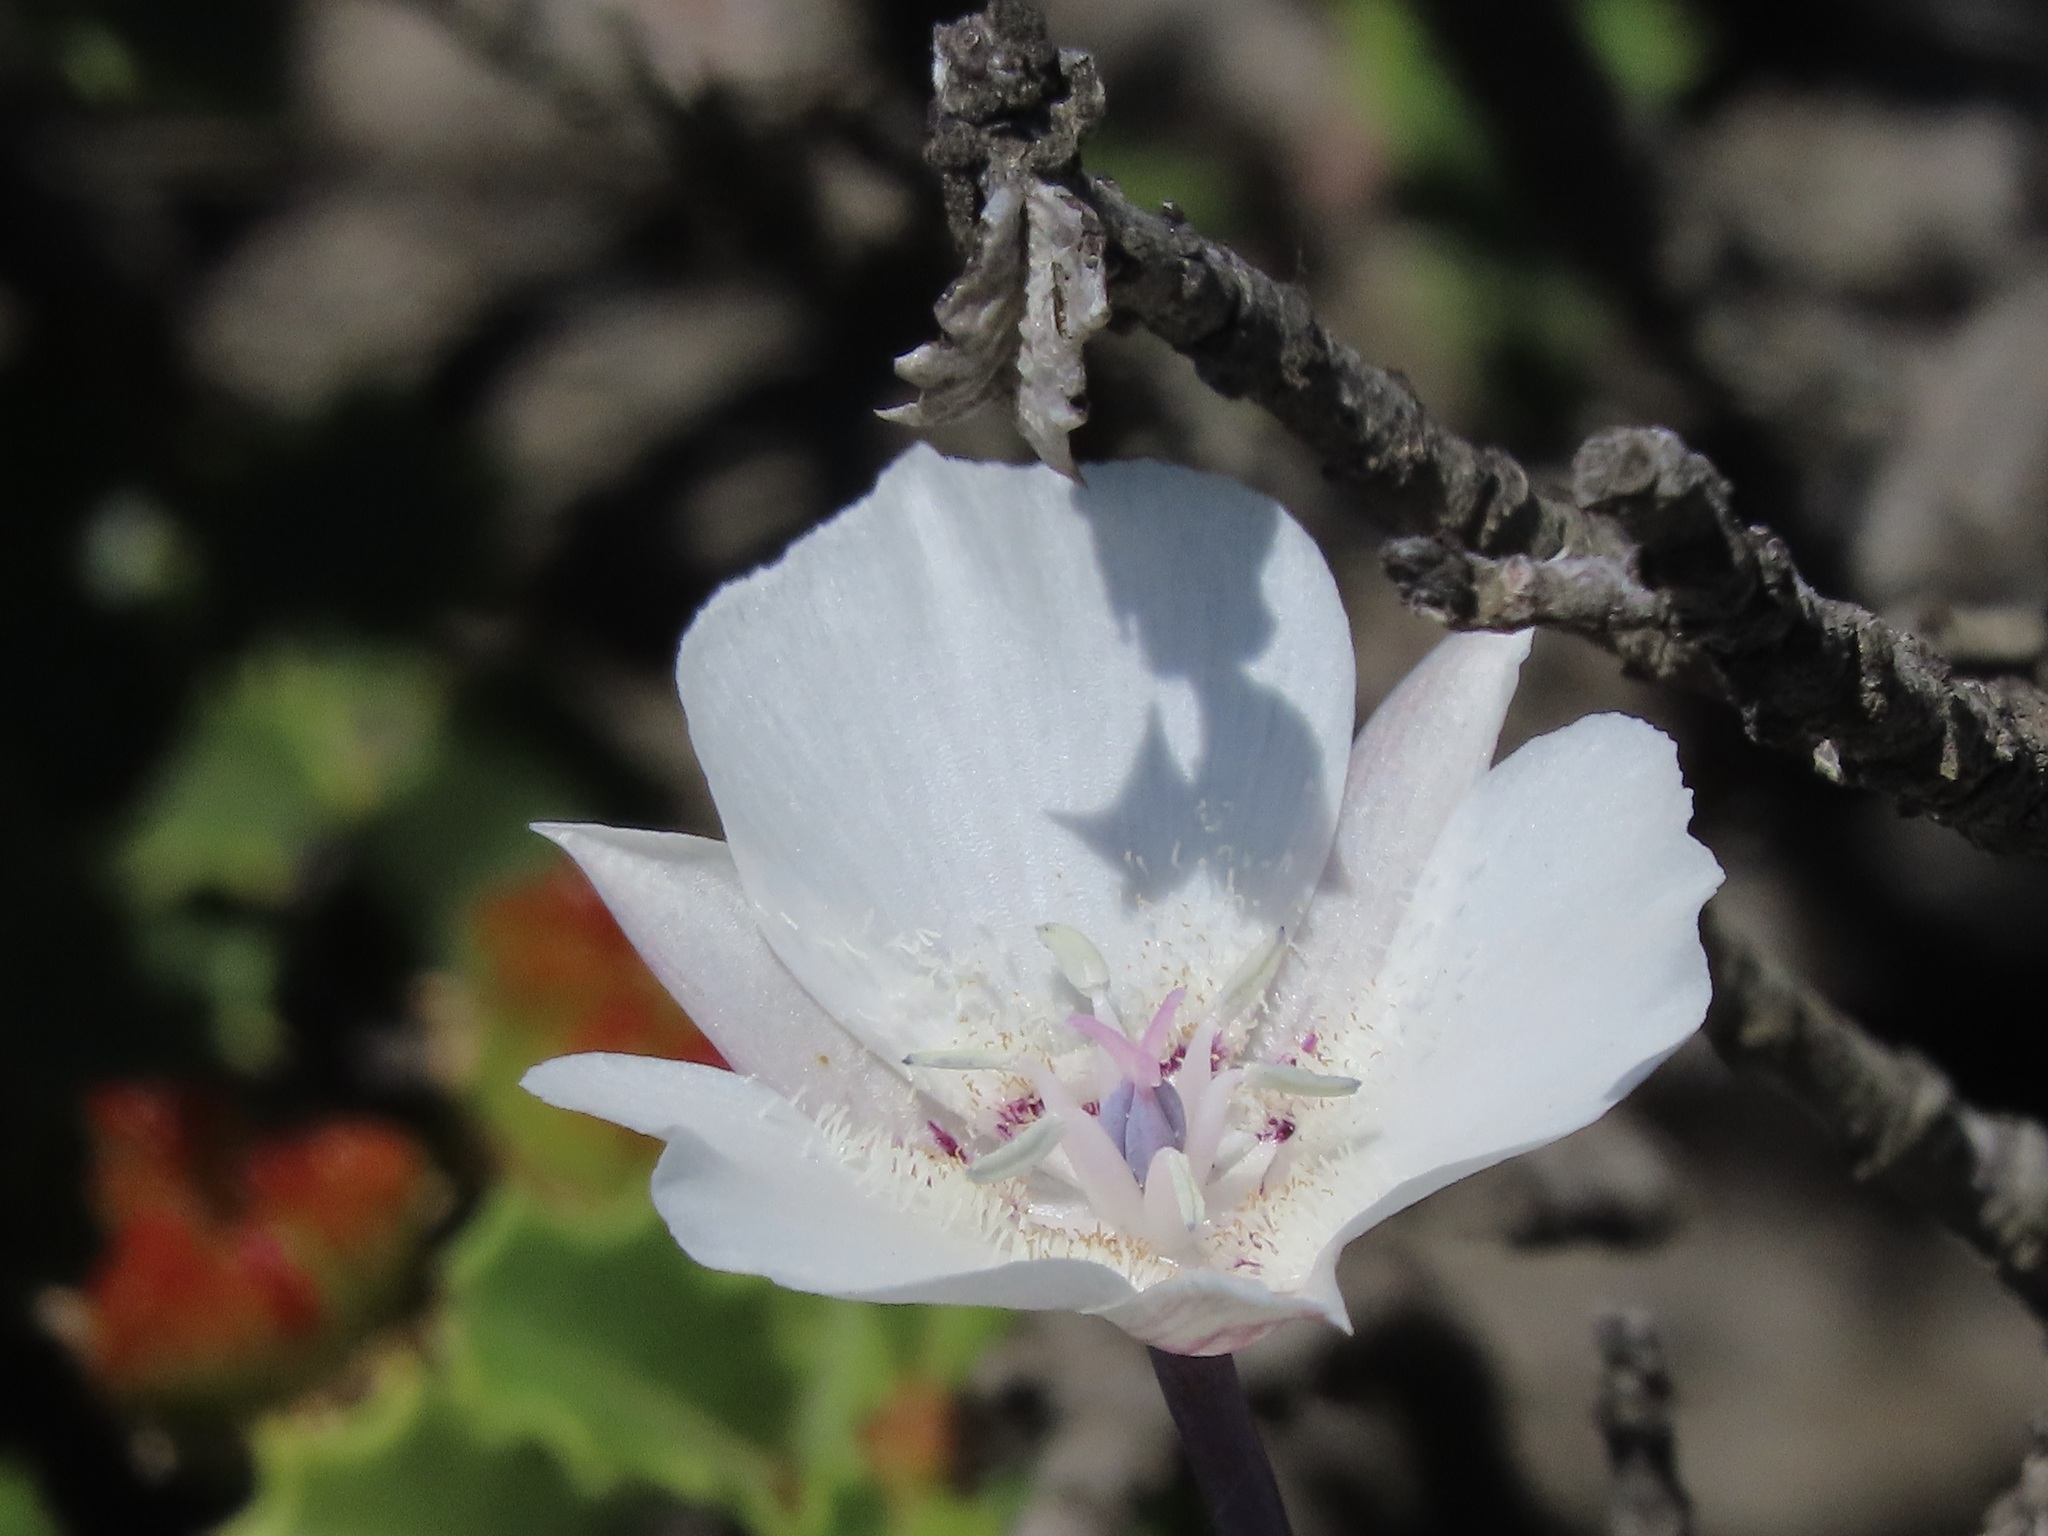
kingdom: Plantae
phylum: Tracheophyta
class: Liliopsida
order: Liliales
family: Liliaceae
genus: Calochortus
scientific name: Calochortus umbellatus
